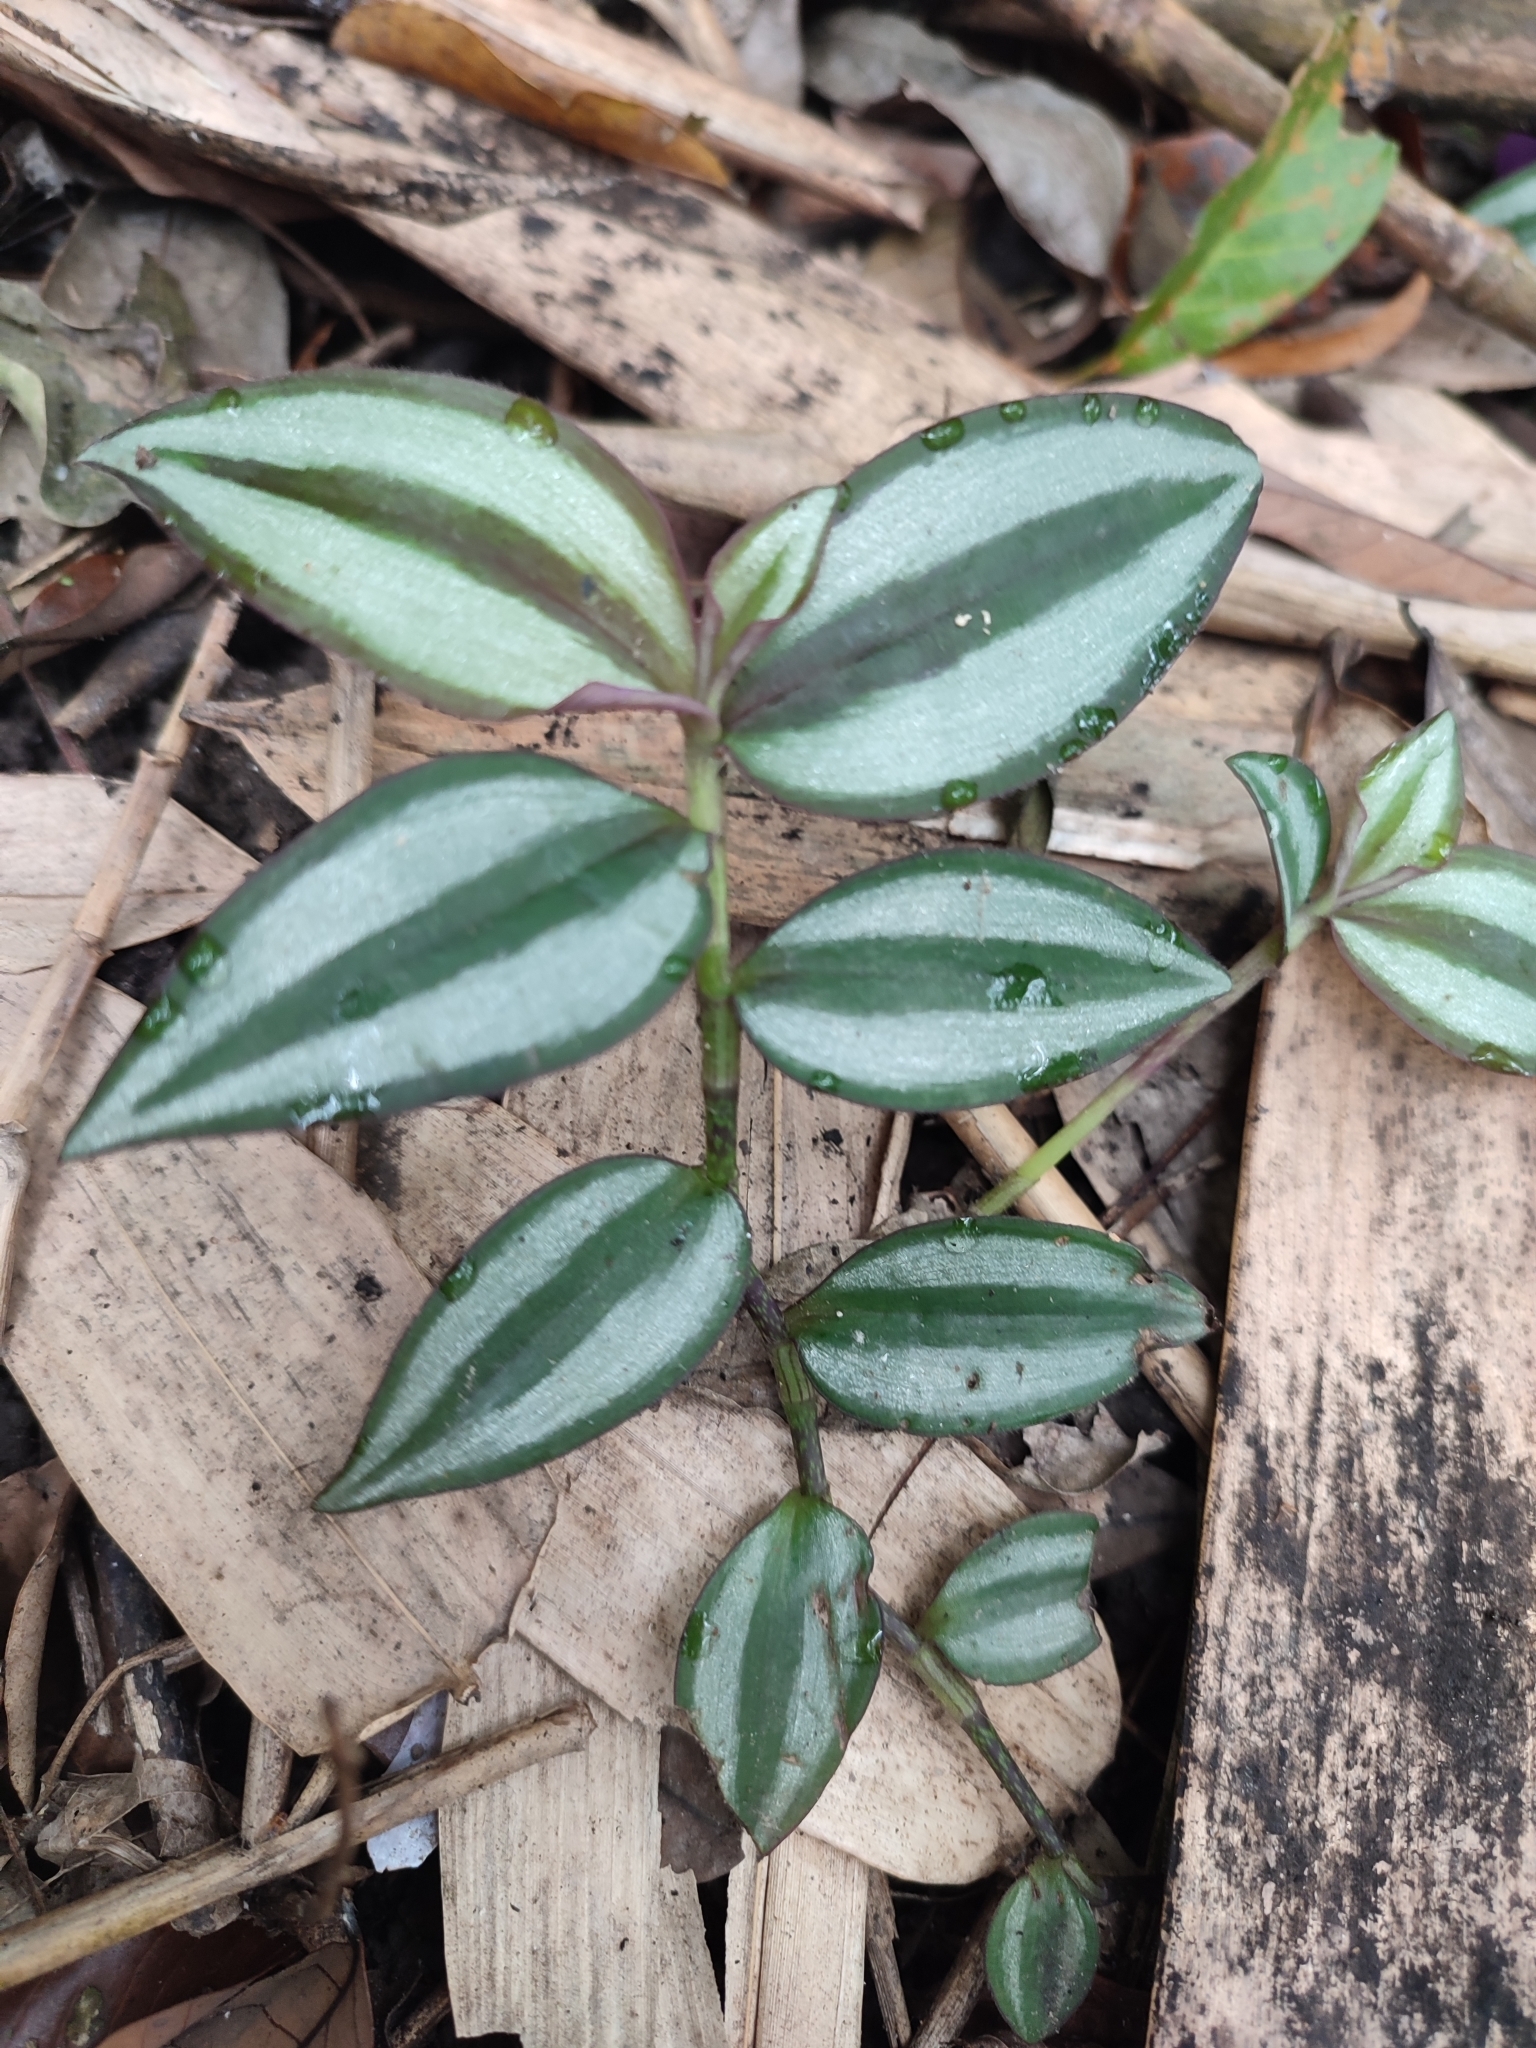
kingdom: Plantae
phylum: Tracheophyta
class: Liliopsida
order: Commelinales
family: Commelinaceae
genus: Tradescantia
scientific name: Tradescantia zebrina
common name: Inchplant
